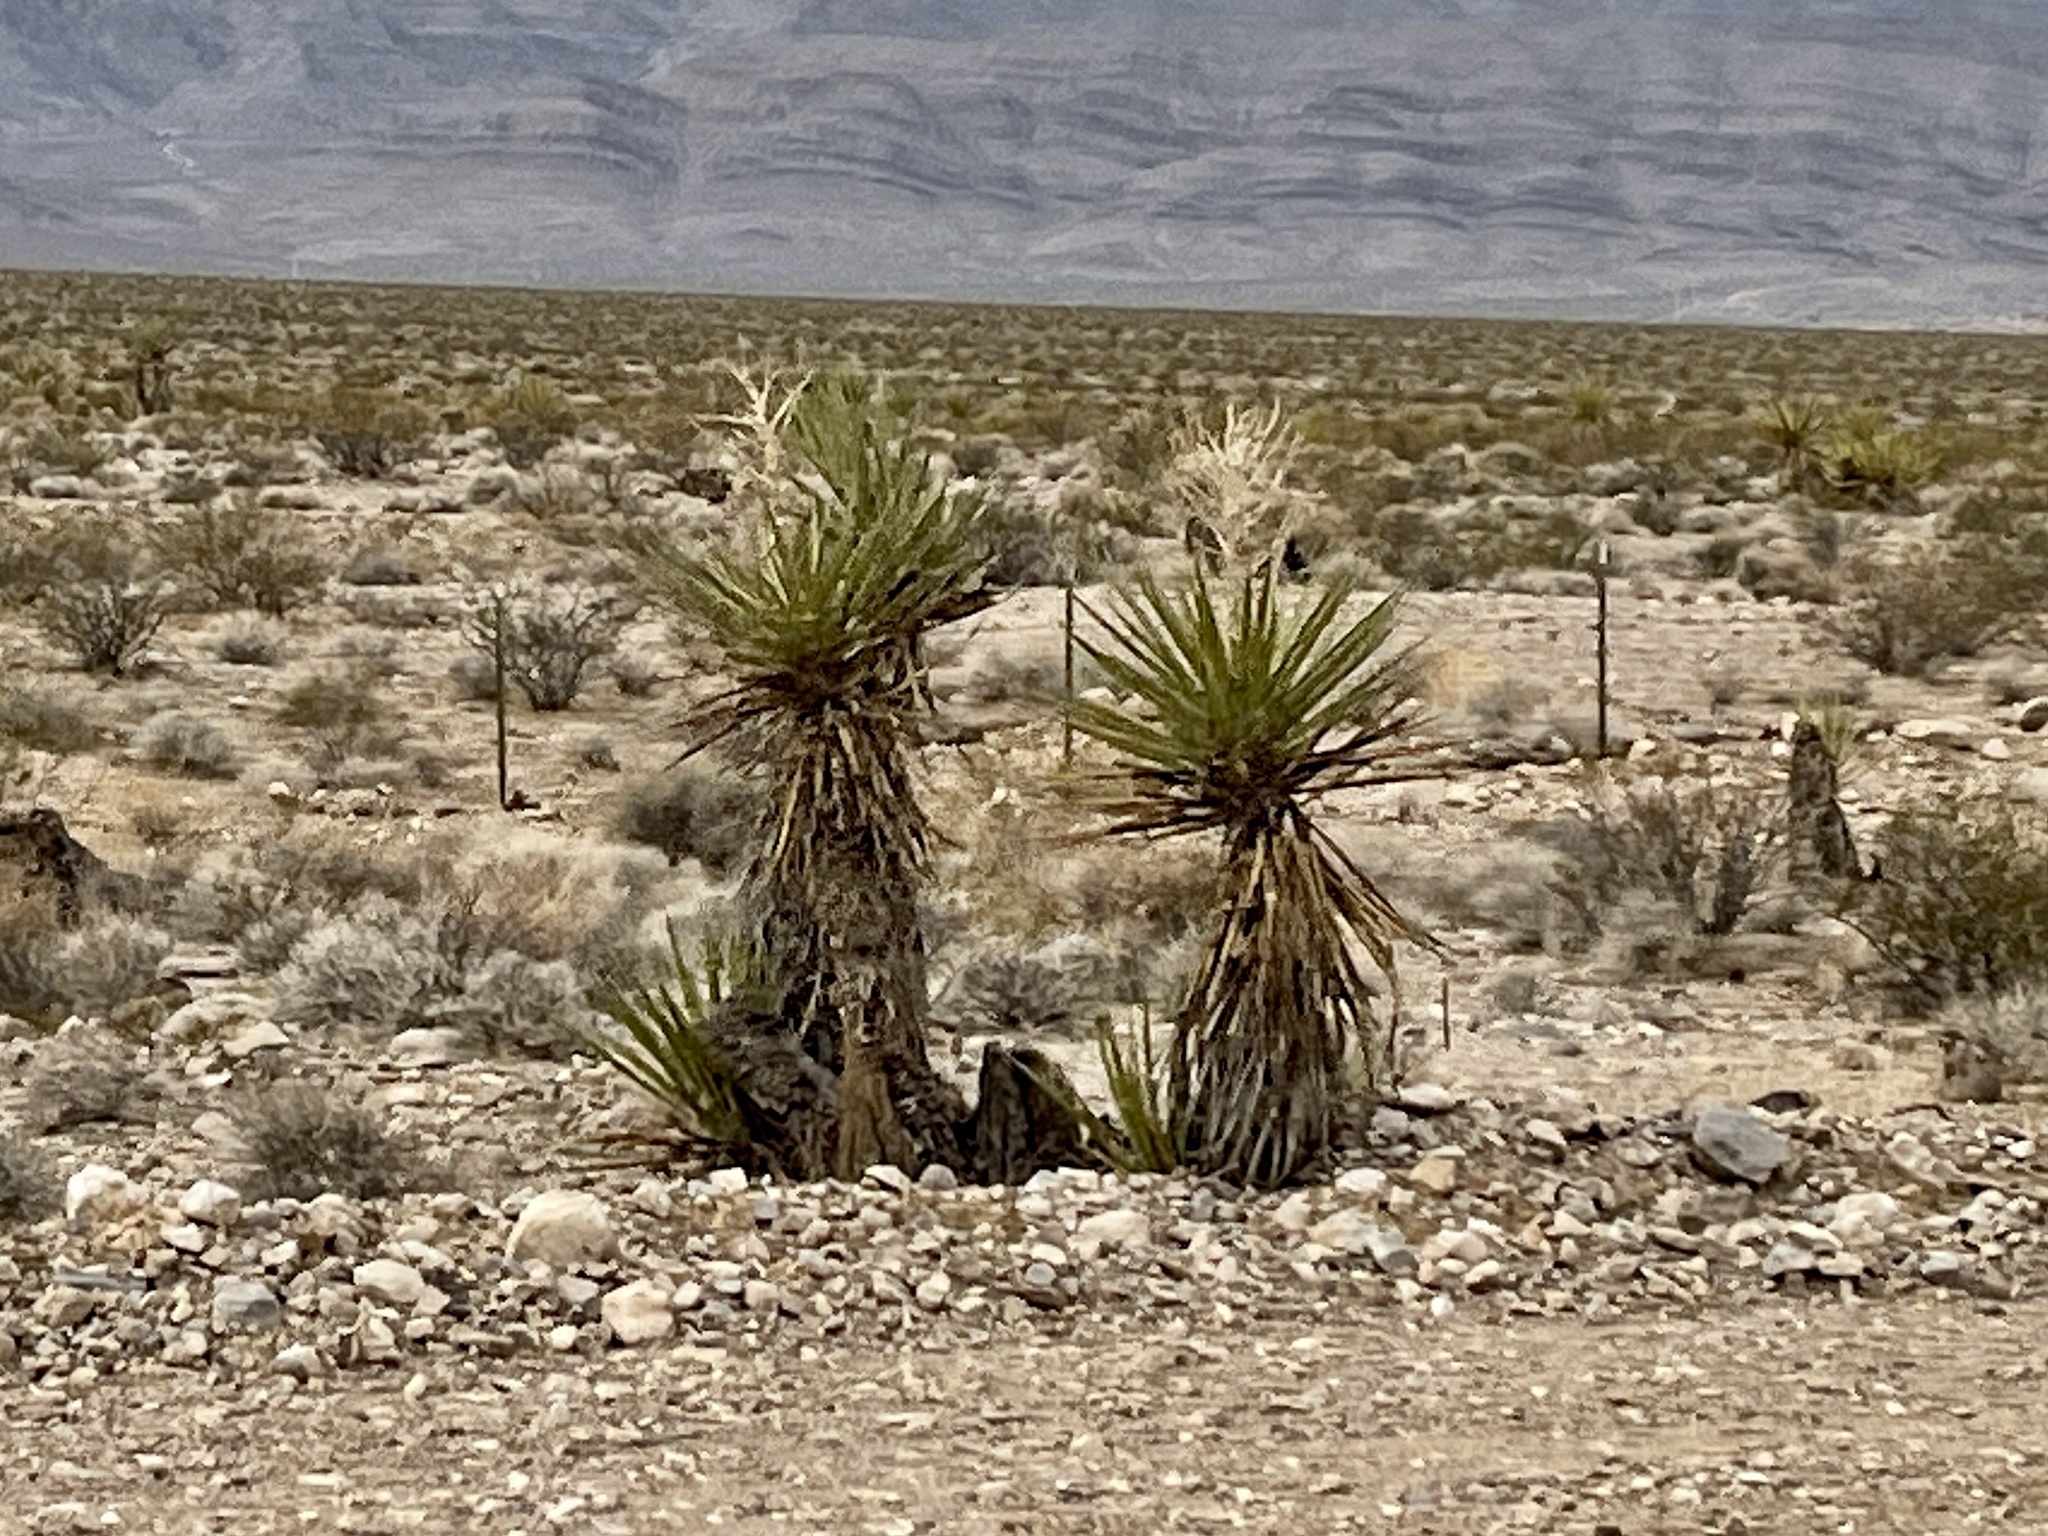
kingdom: Plantae
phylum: Tracheophyta
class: Liliopsida
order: Asparagales
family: Asparagaceae
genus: Yucca
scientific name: Yucca schidigera
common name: Mojave yucca
